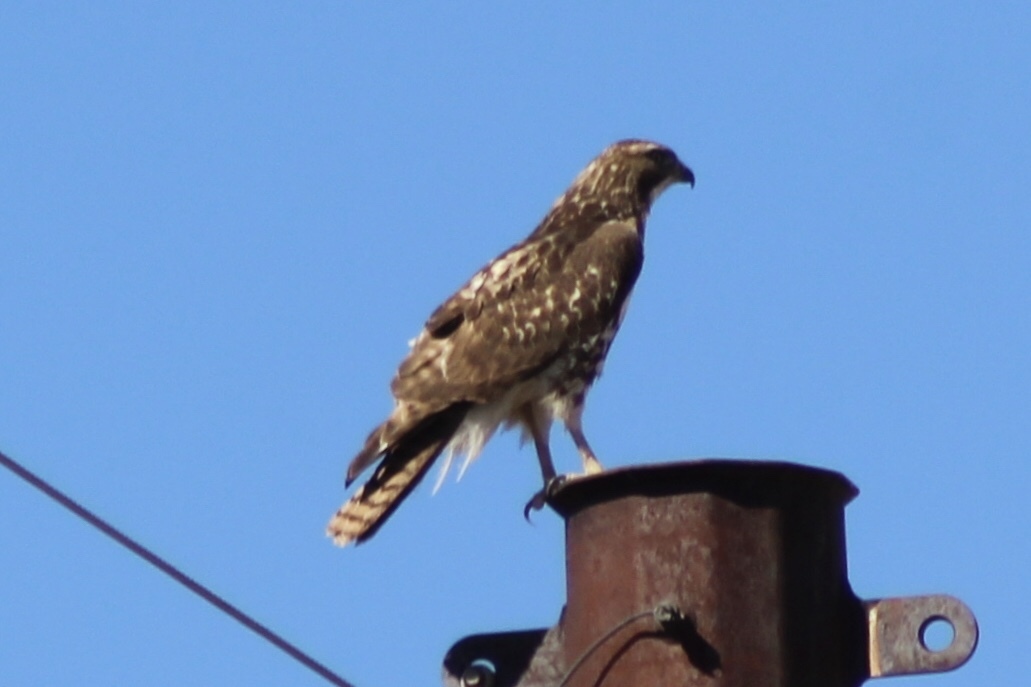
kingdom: Animalia
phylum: Chordata
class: Aves
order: Accipitriformes
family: Accipitridae
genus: Buteo
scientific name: Buteo jamaicensis
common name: Red-tailed hawk
